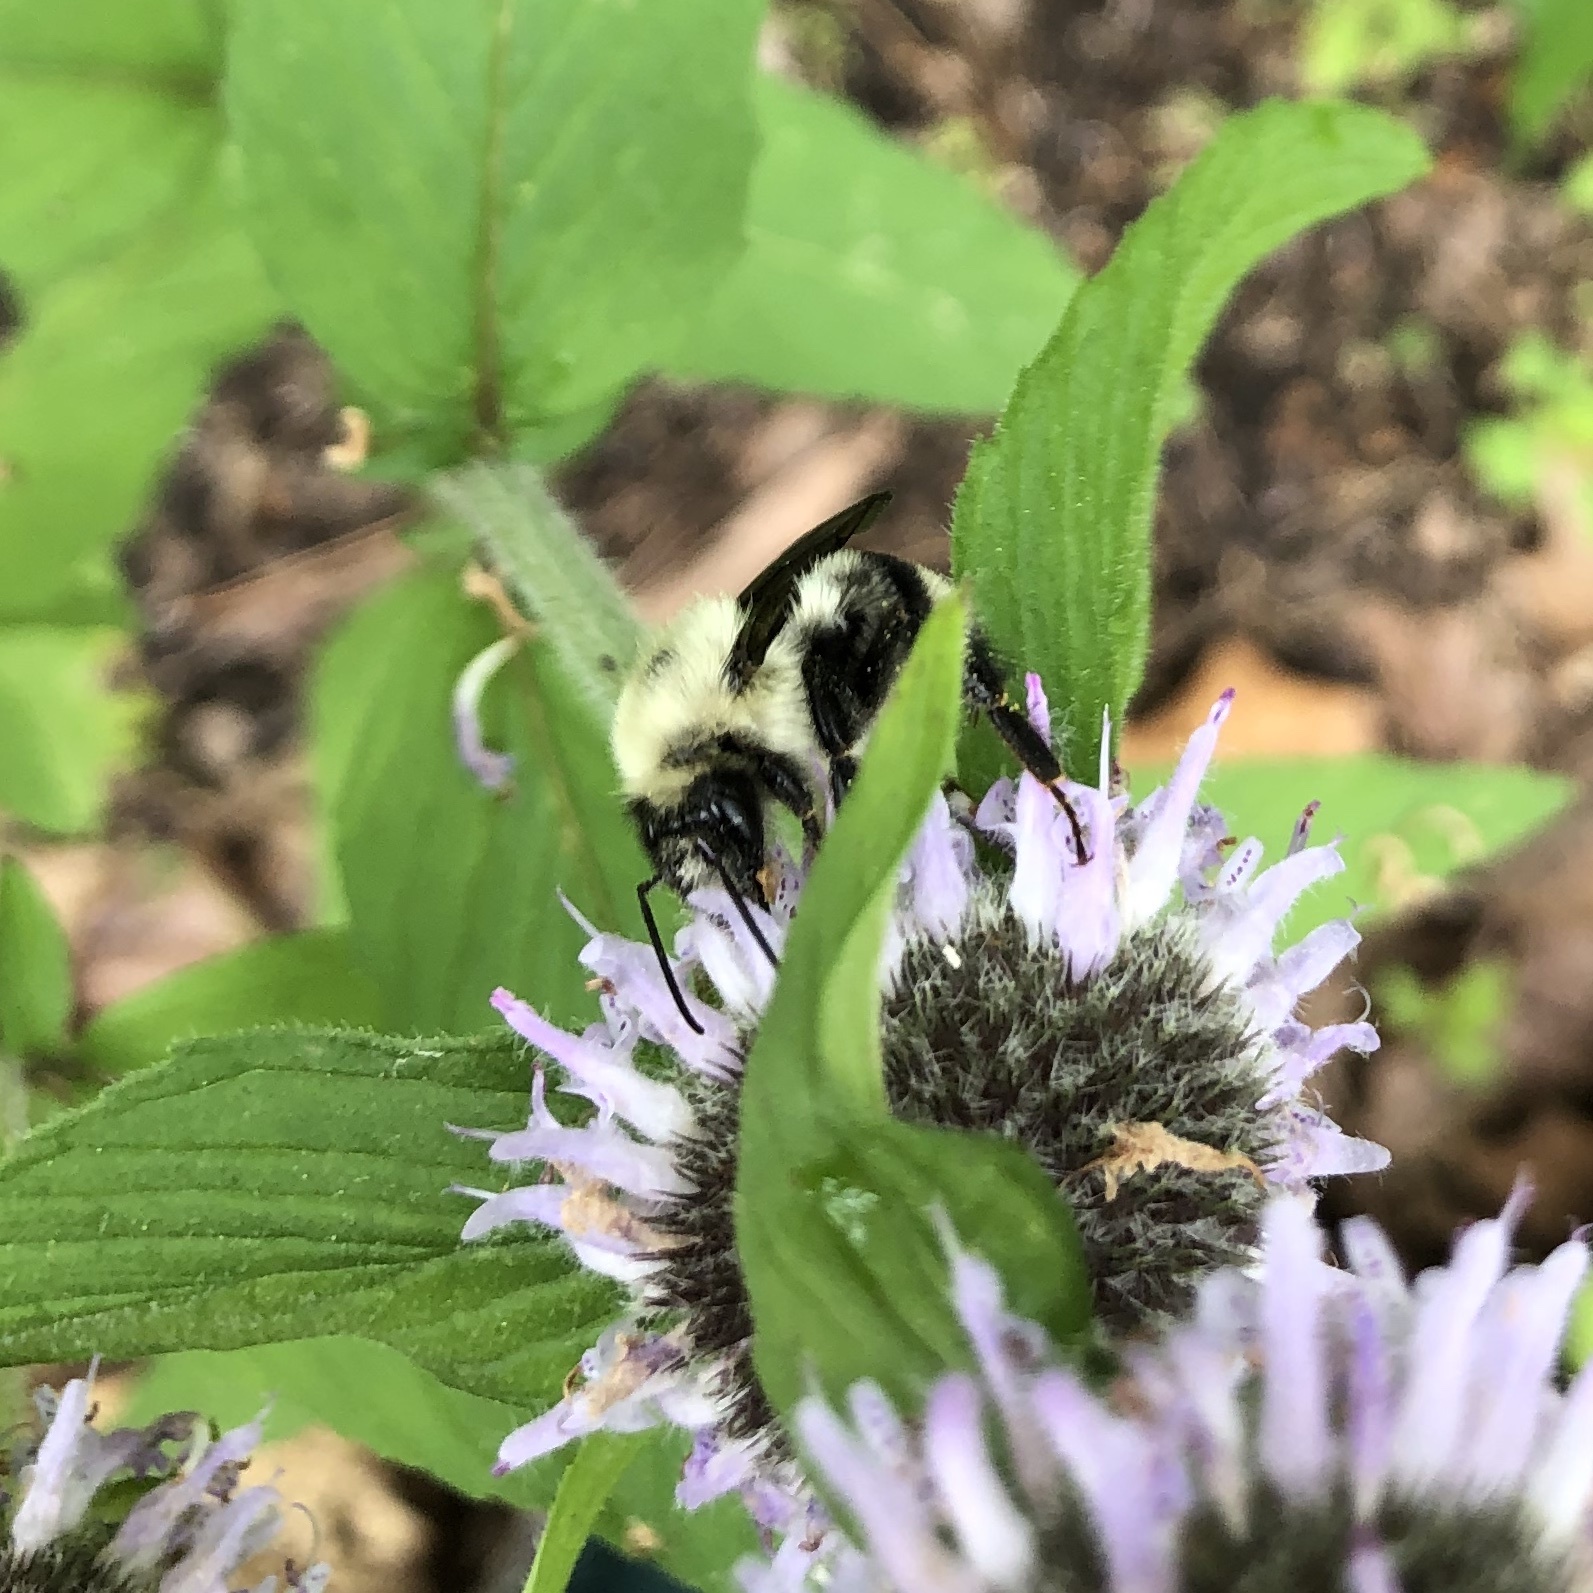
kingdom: Animalia
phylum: Arthropoda
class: Insecta
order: Hymenoptera
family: Apidae
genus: Bombus
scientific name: Bombus bimaculatus
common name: Two-spotted bumble bee
